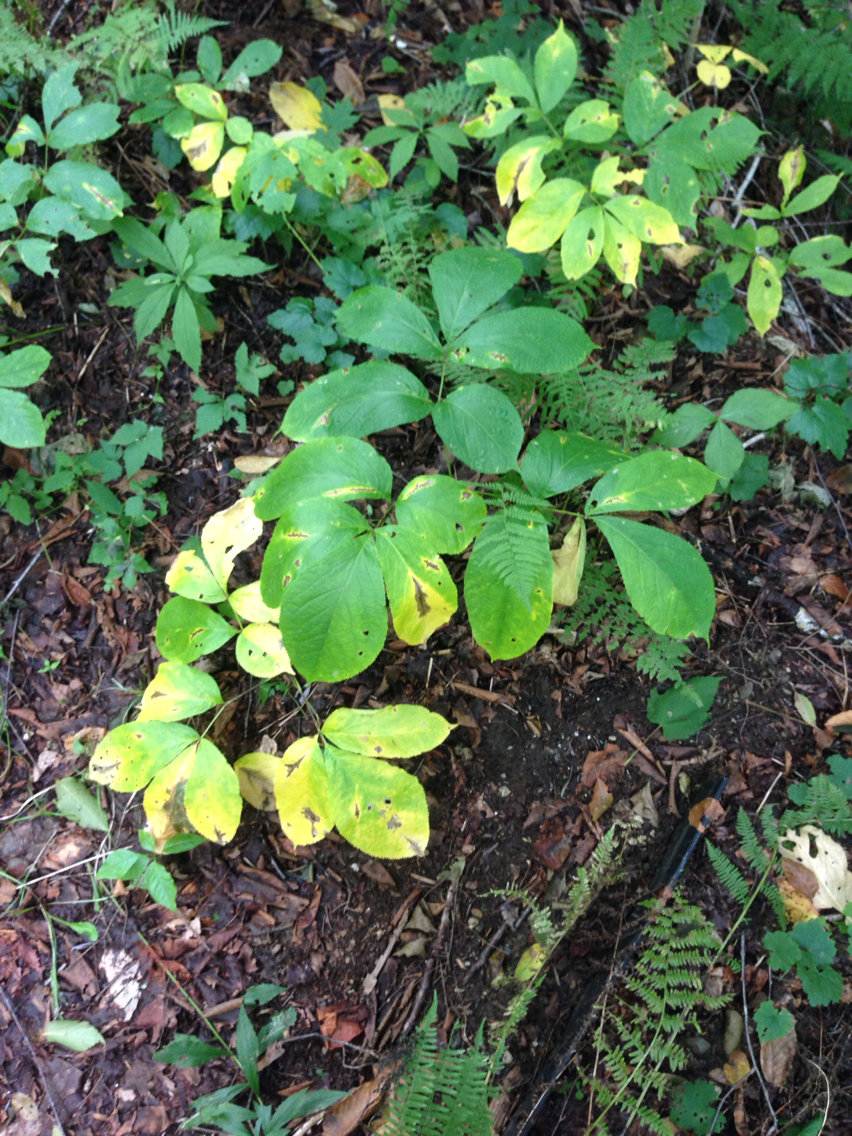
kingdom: Plantae
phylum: Tracheophyta
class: Magnoliopsida
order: Apiales
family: Araliaceae
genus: Aralia
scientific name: Aralia nudicaulis
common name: Wild sarsaparilla
